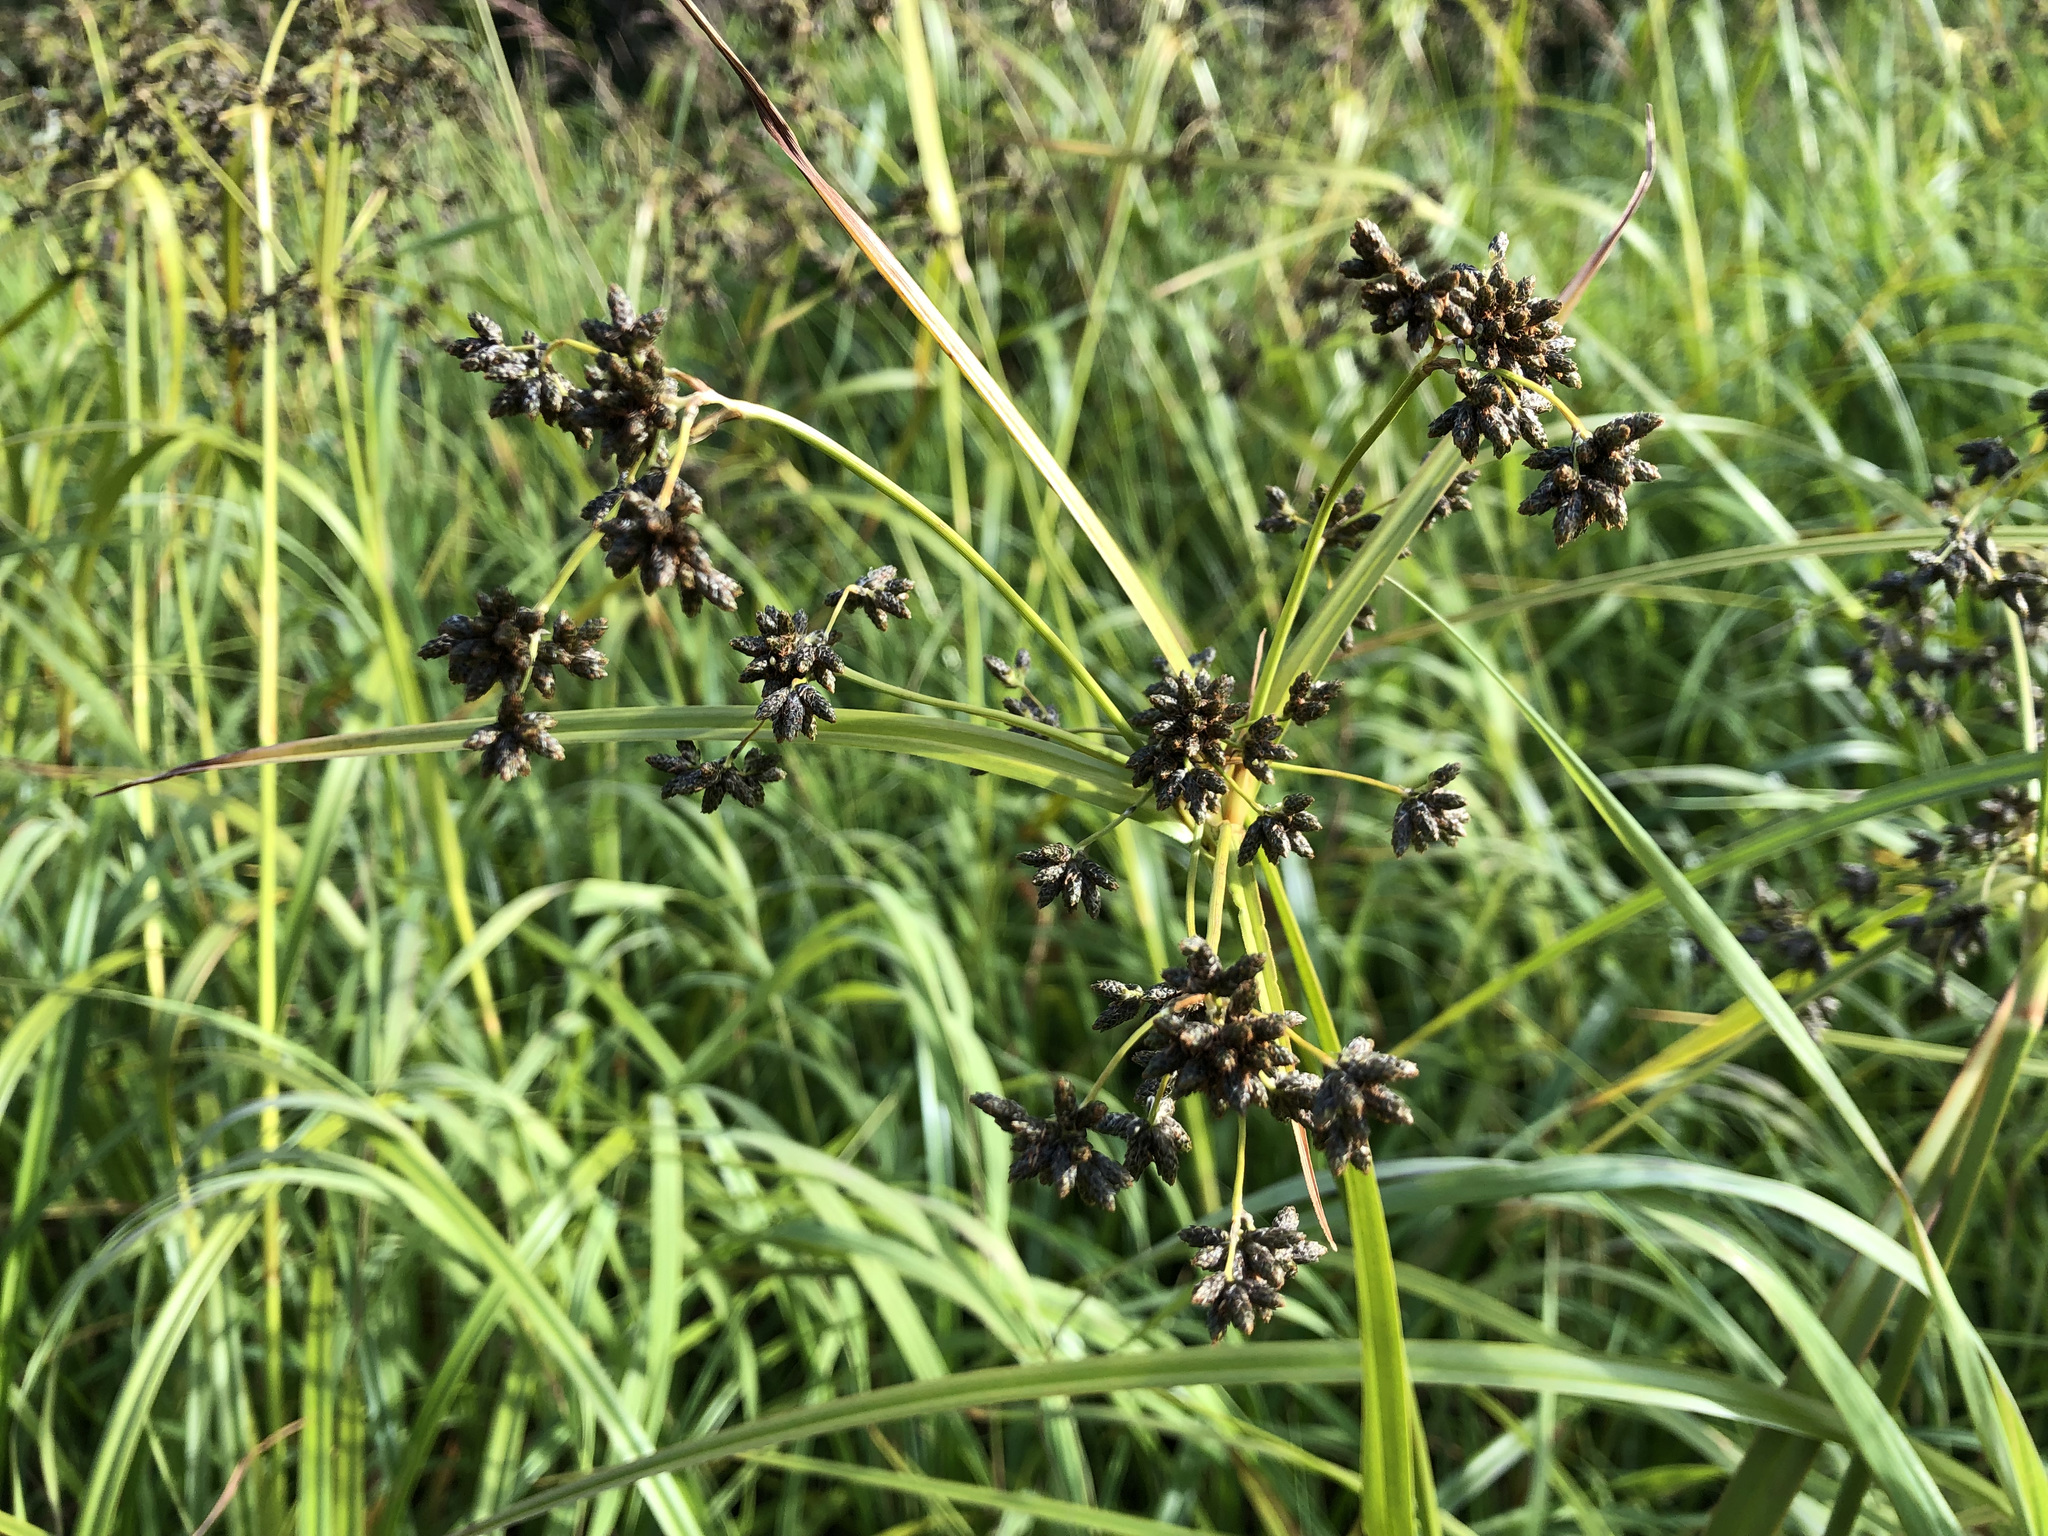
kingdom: Plantae
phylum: Tracheophyta
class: Liliopsida
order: Poales
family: Cyperaceae
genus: Scirpus
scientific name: Scirpus microcarpus
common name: Panicled bulrush
